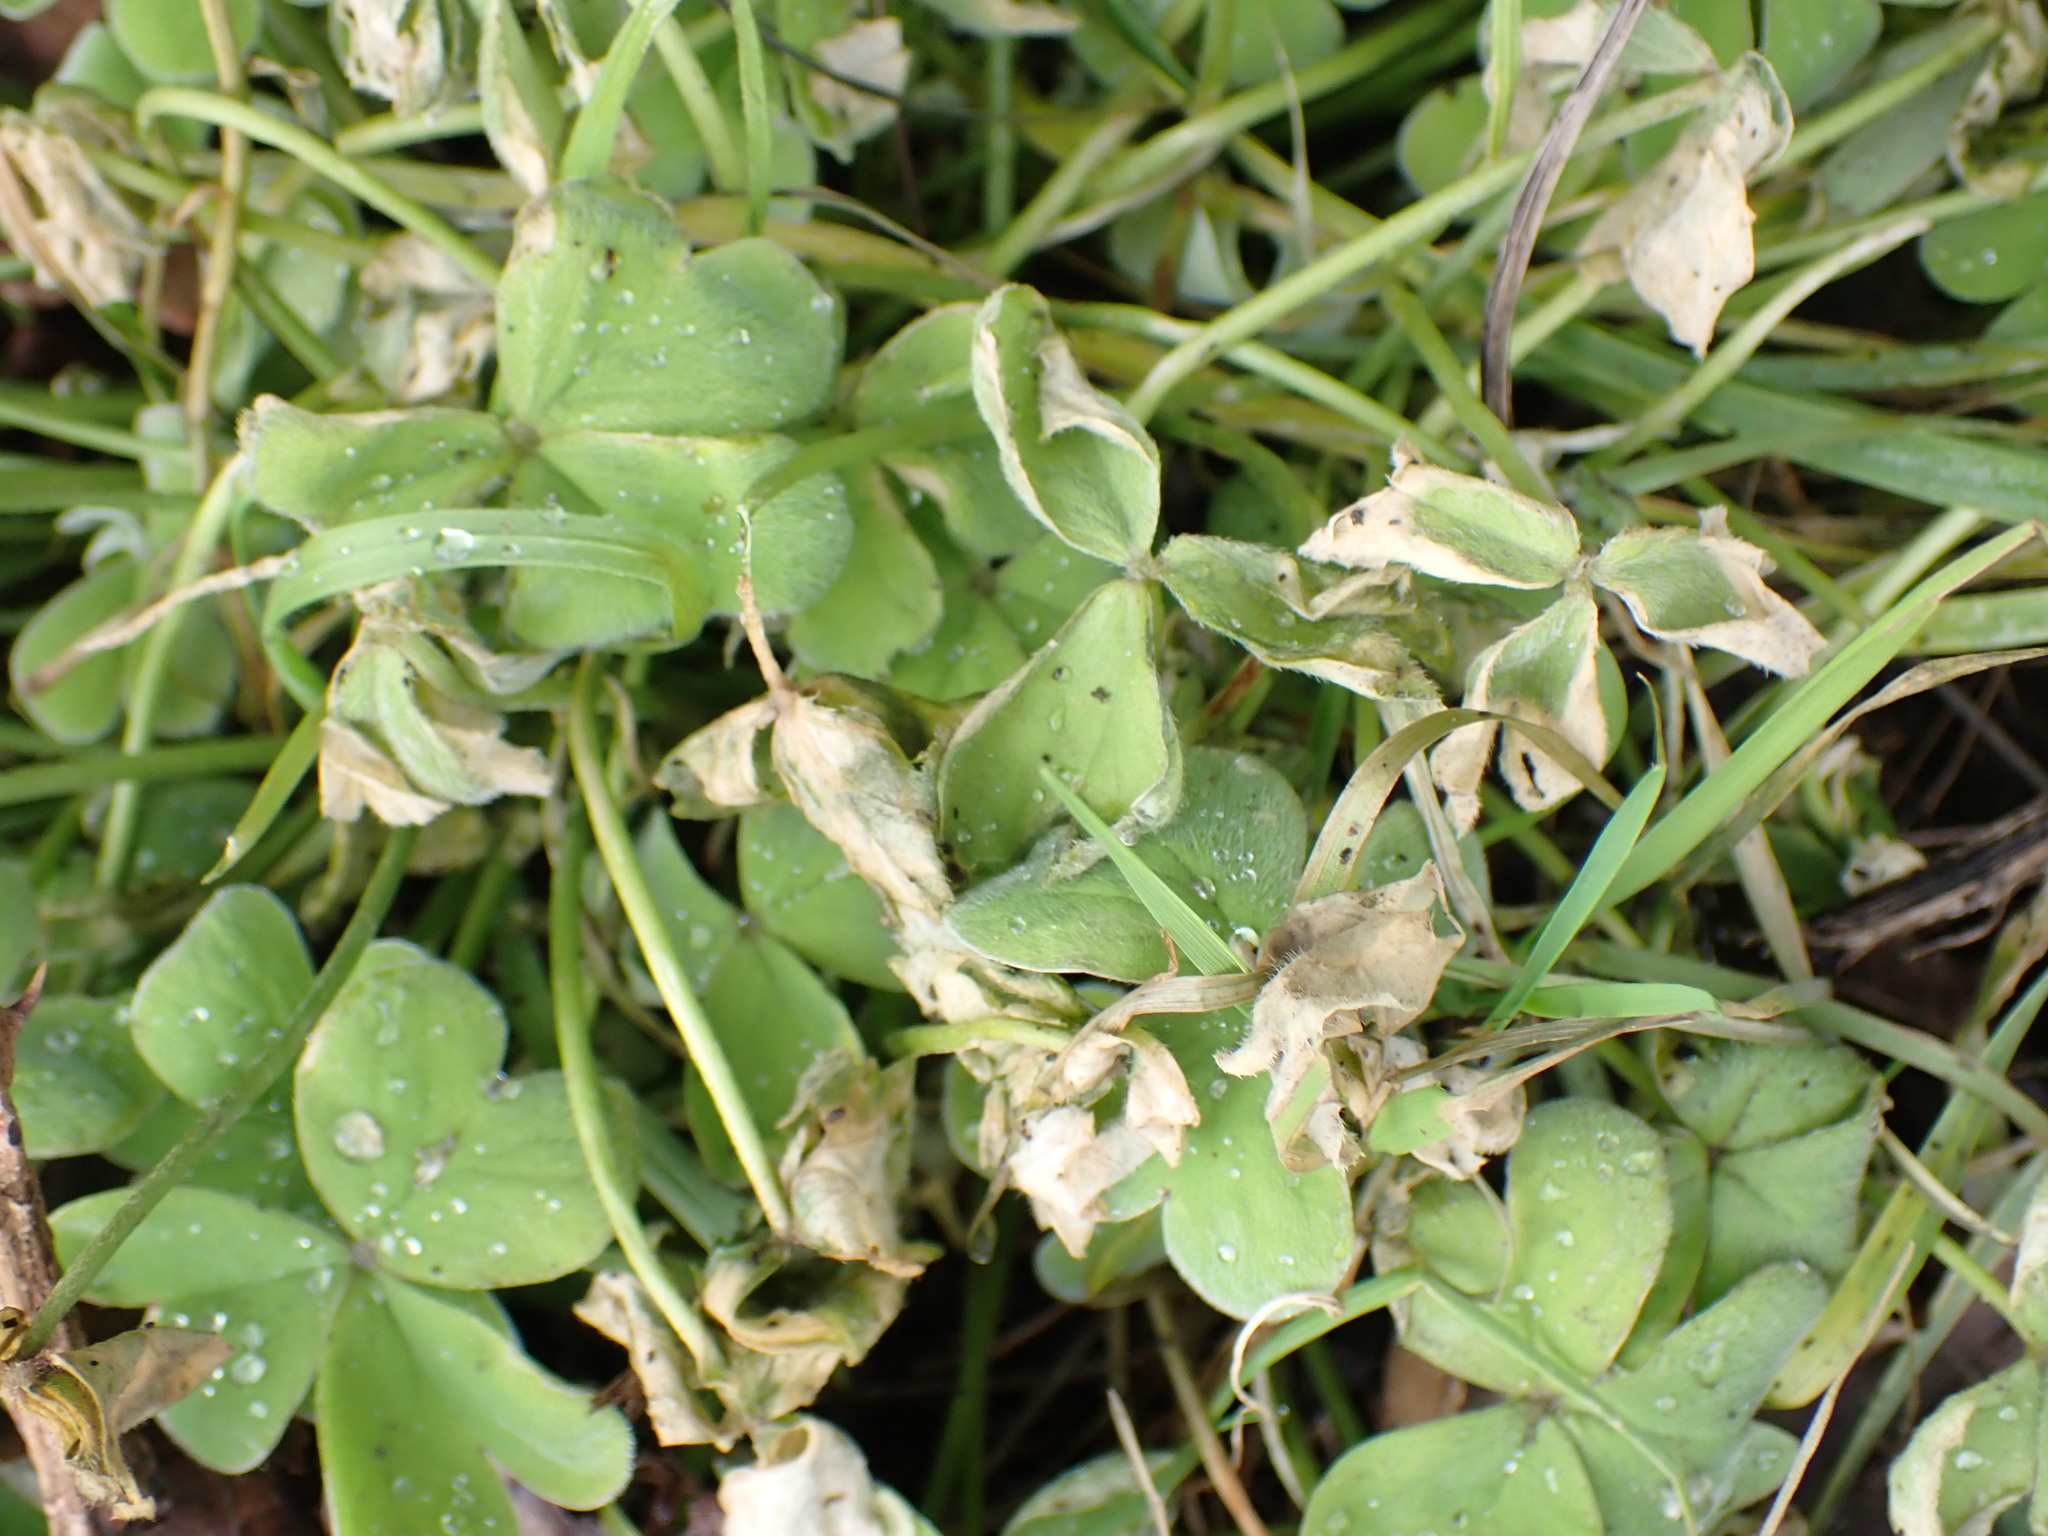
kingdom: Plantae
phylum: Tracheophyta
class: Magnoliopsida
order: Oxalidales
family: Oxalidaceae
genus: Oxalis
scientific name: Oxalis articulata
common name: Pink-sorrel
